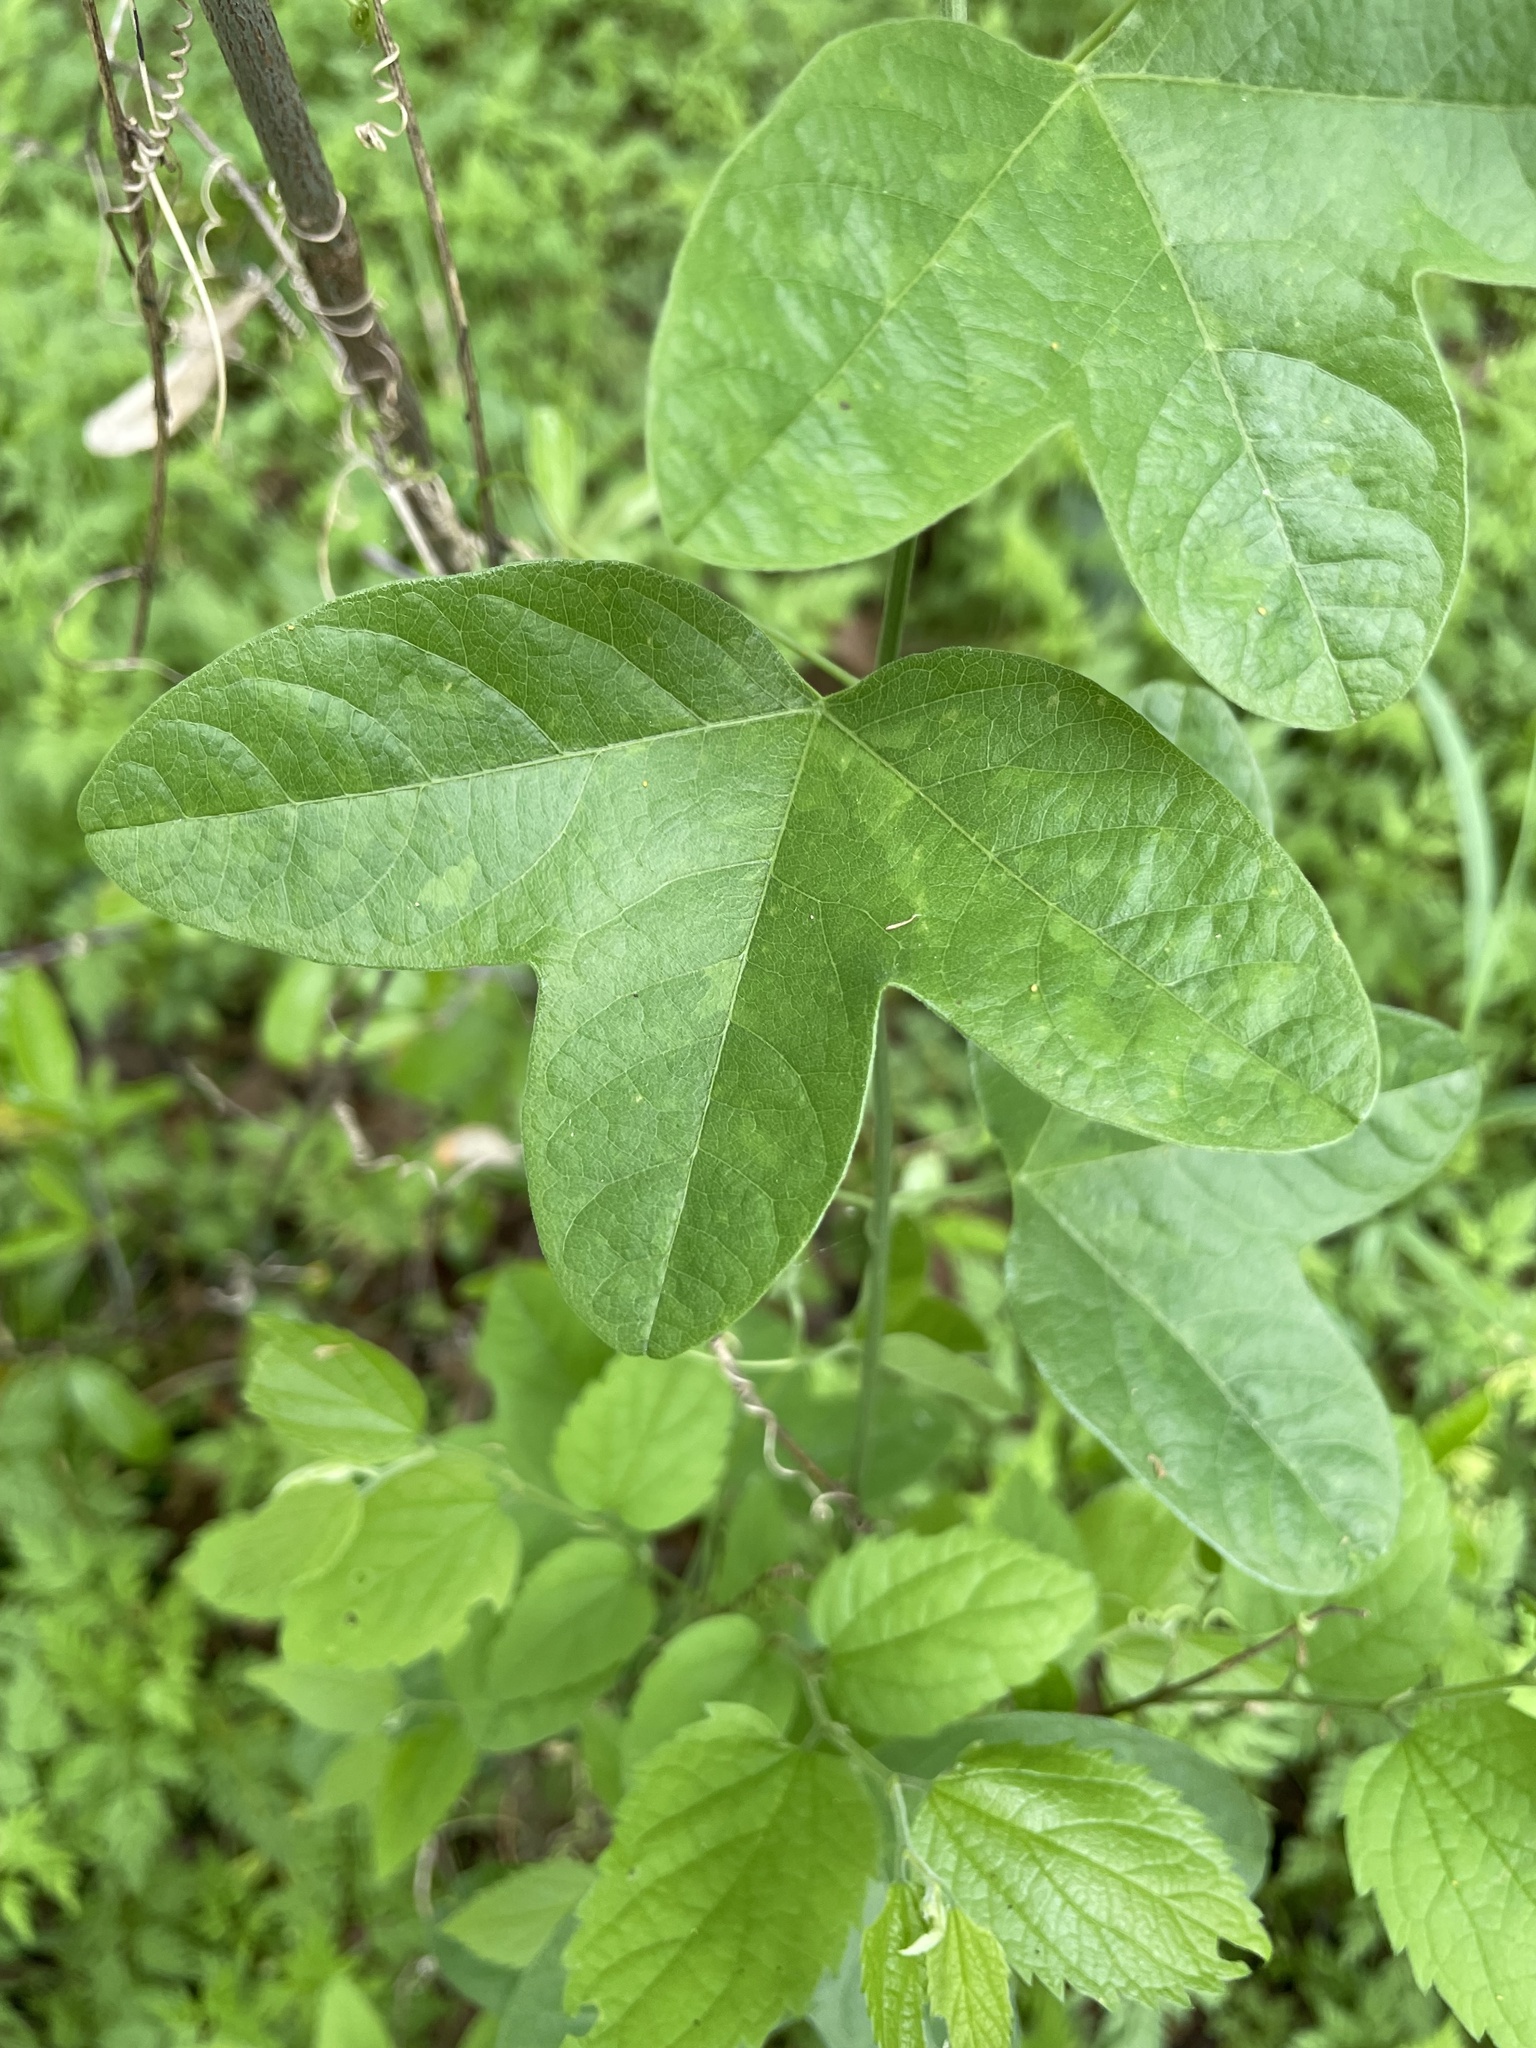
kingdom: Plantae
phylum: Tracheophyta
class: Magnoliopsida
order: Malpighiales
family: Passifloraceae
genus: Passiflora
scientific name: Passiflora lutea
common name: Yellow passionflower
